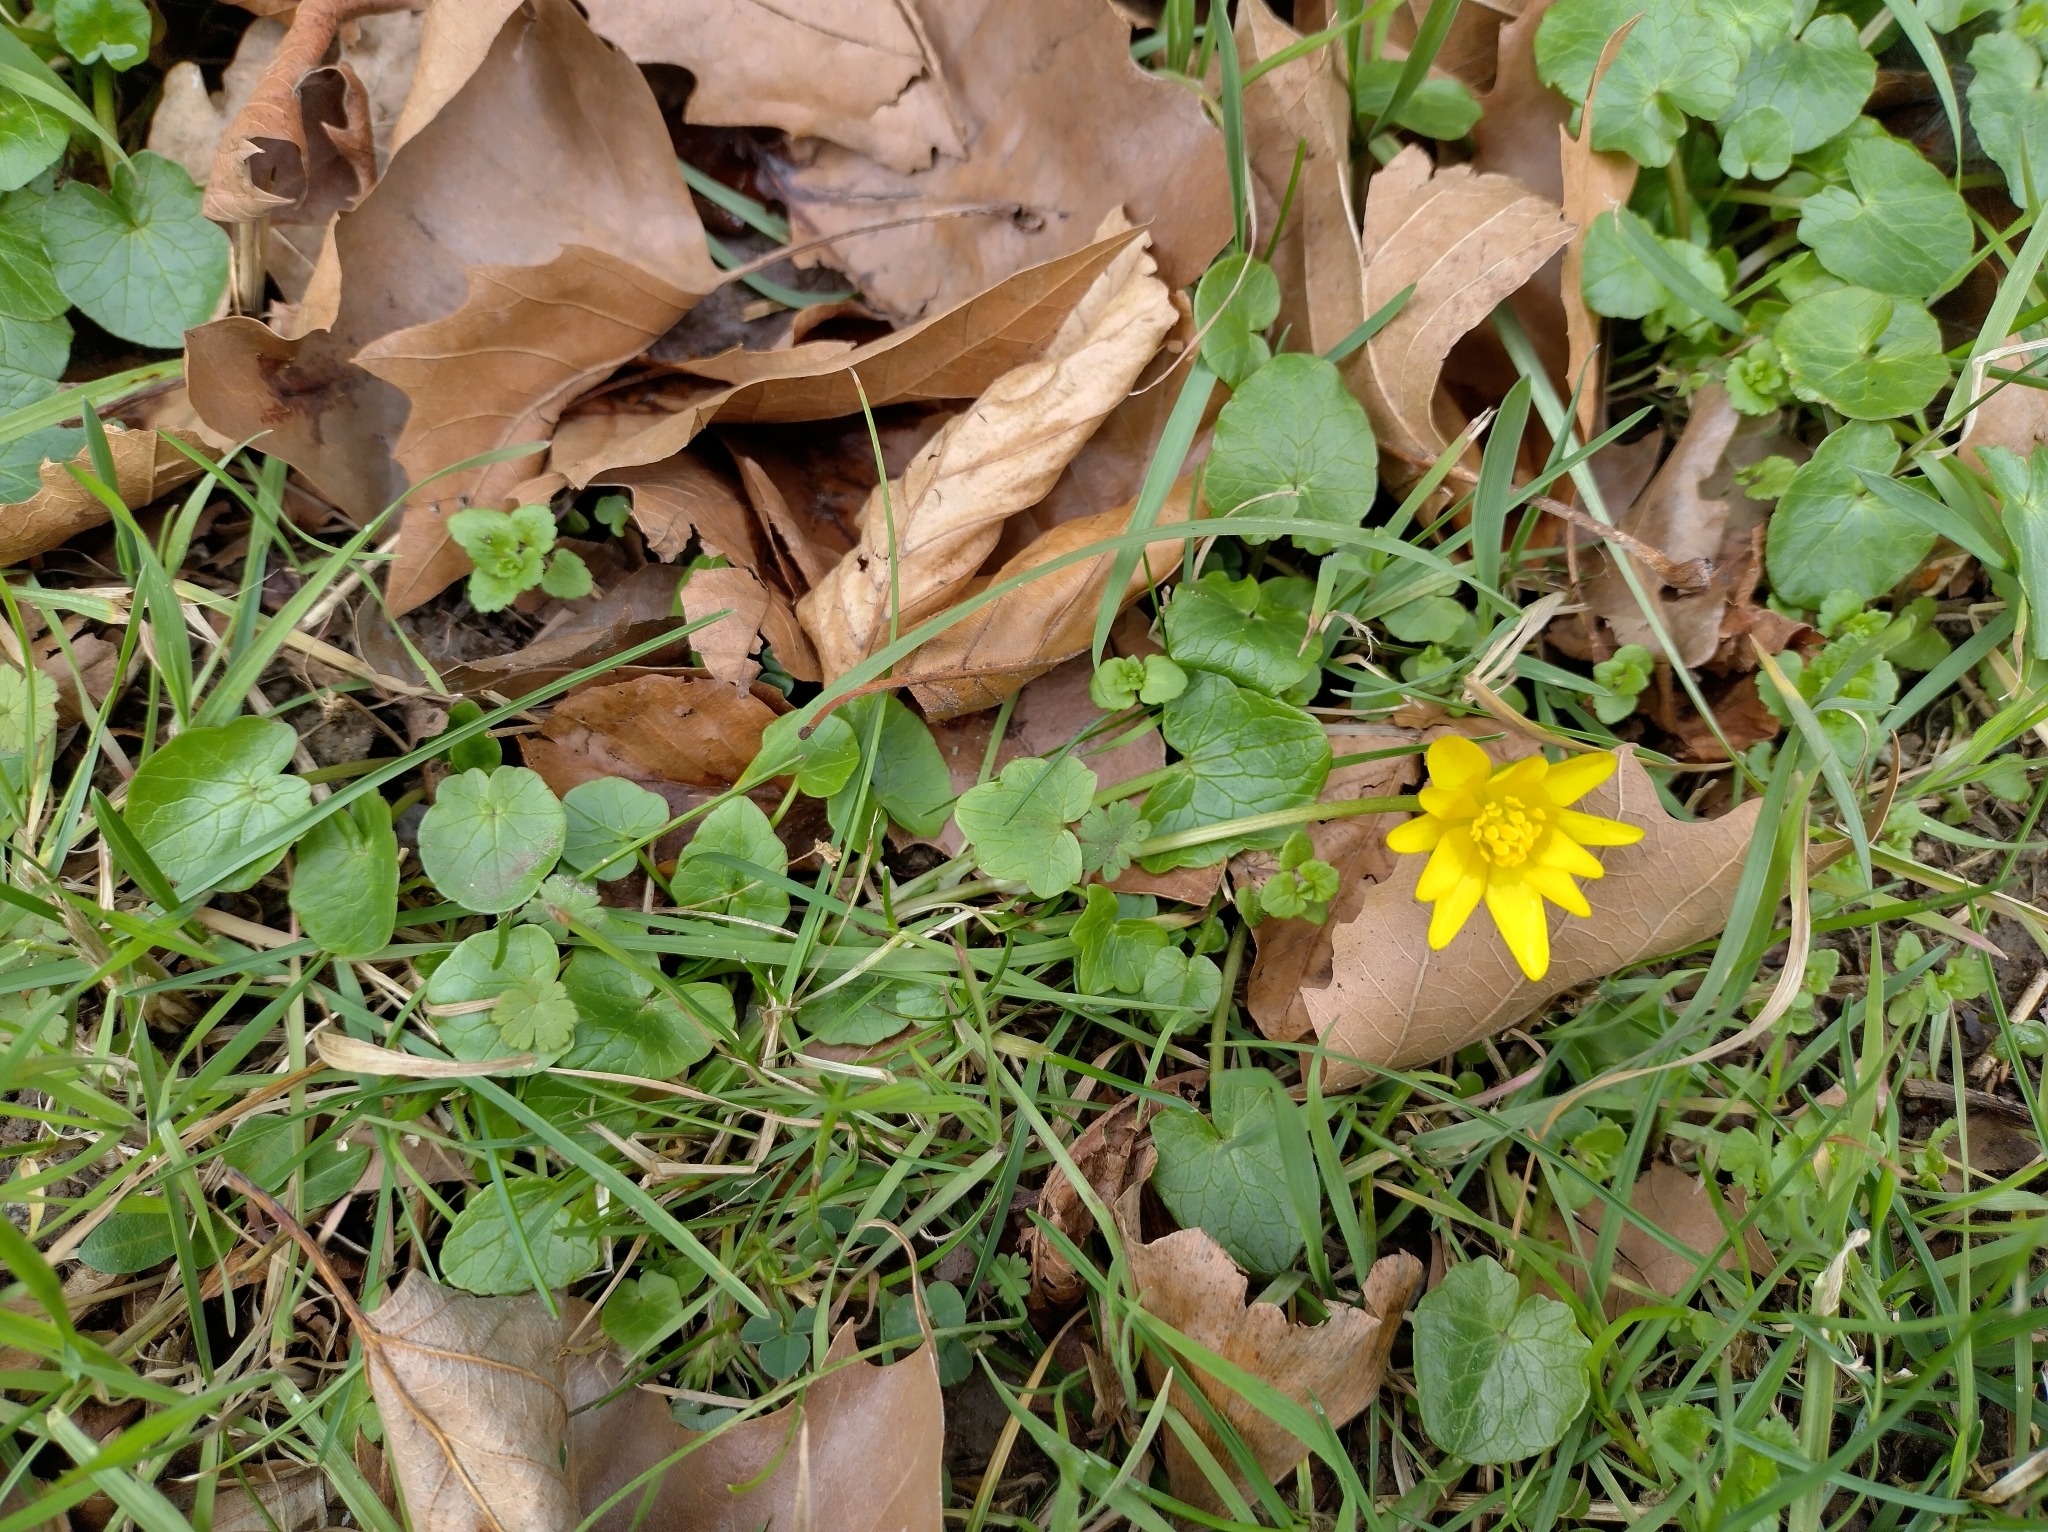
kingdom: Plantae
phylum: Tracheophyta
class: Magnoliopsida
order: Ranunculales
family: Ranunculaceae
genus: Ficaria
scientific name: Ficaria verna
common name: Lesser celandine
